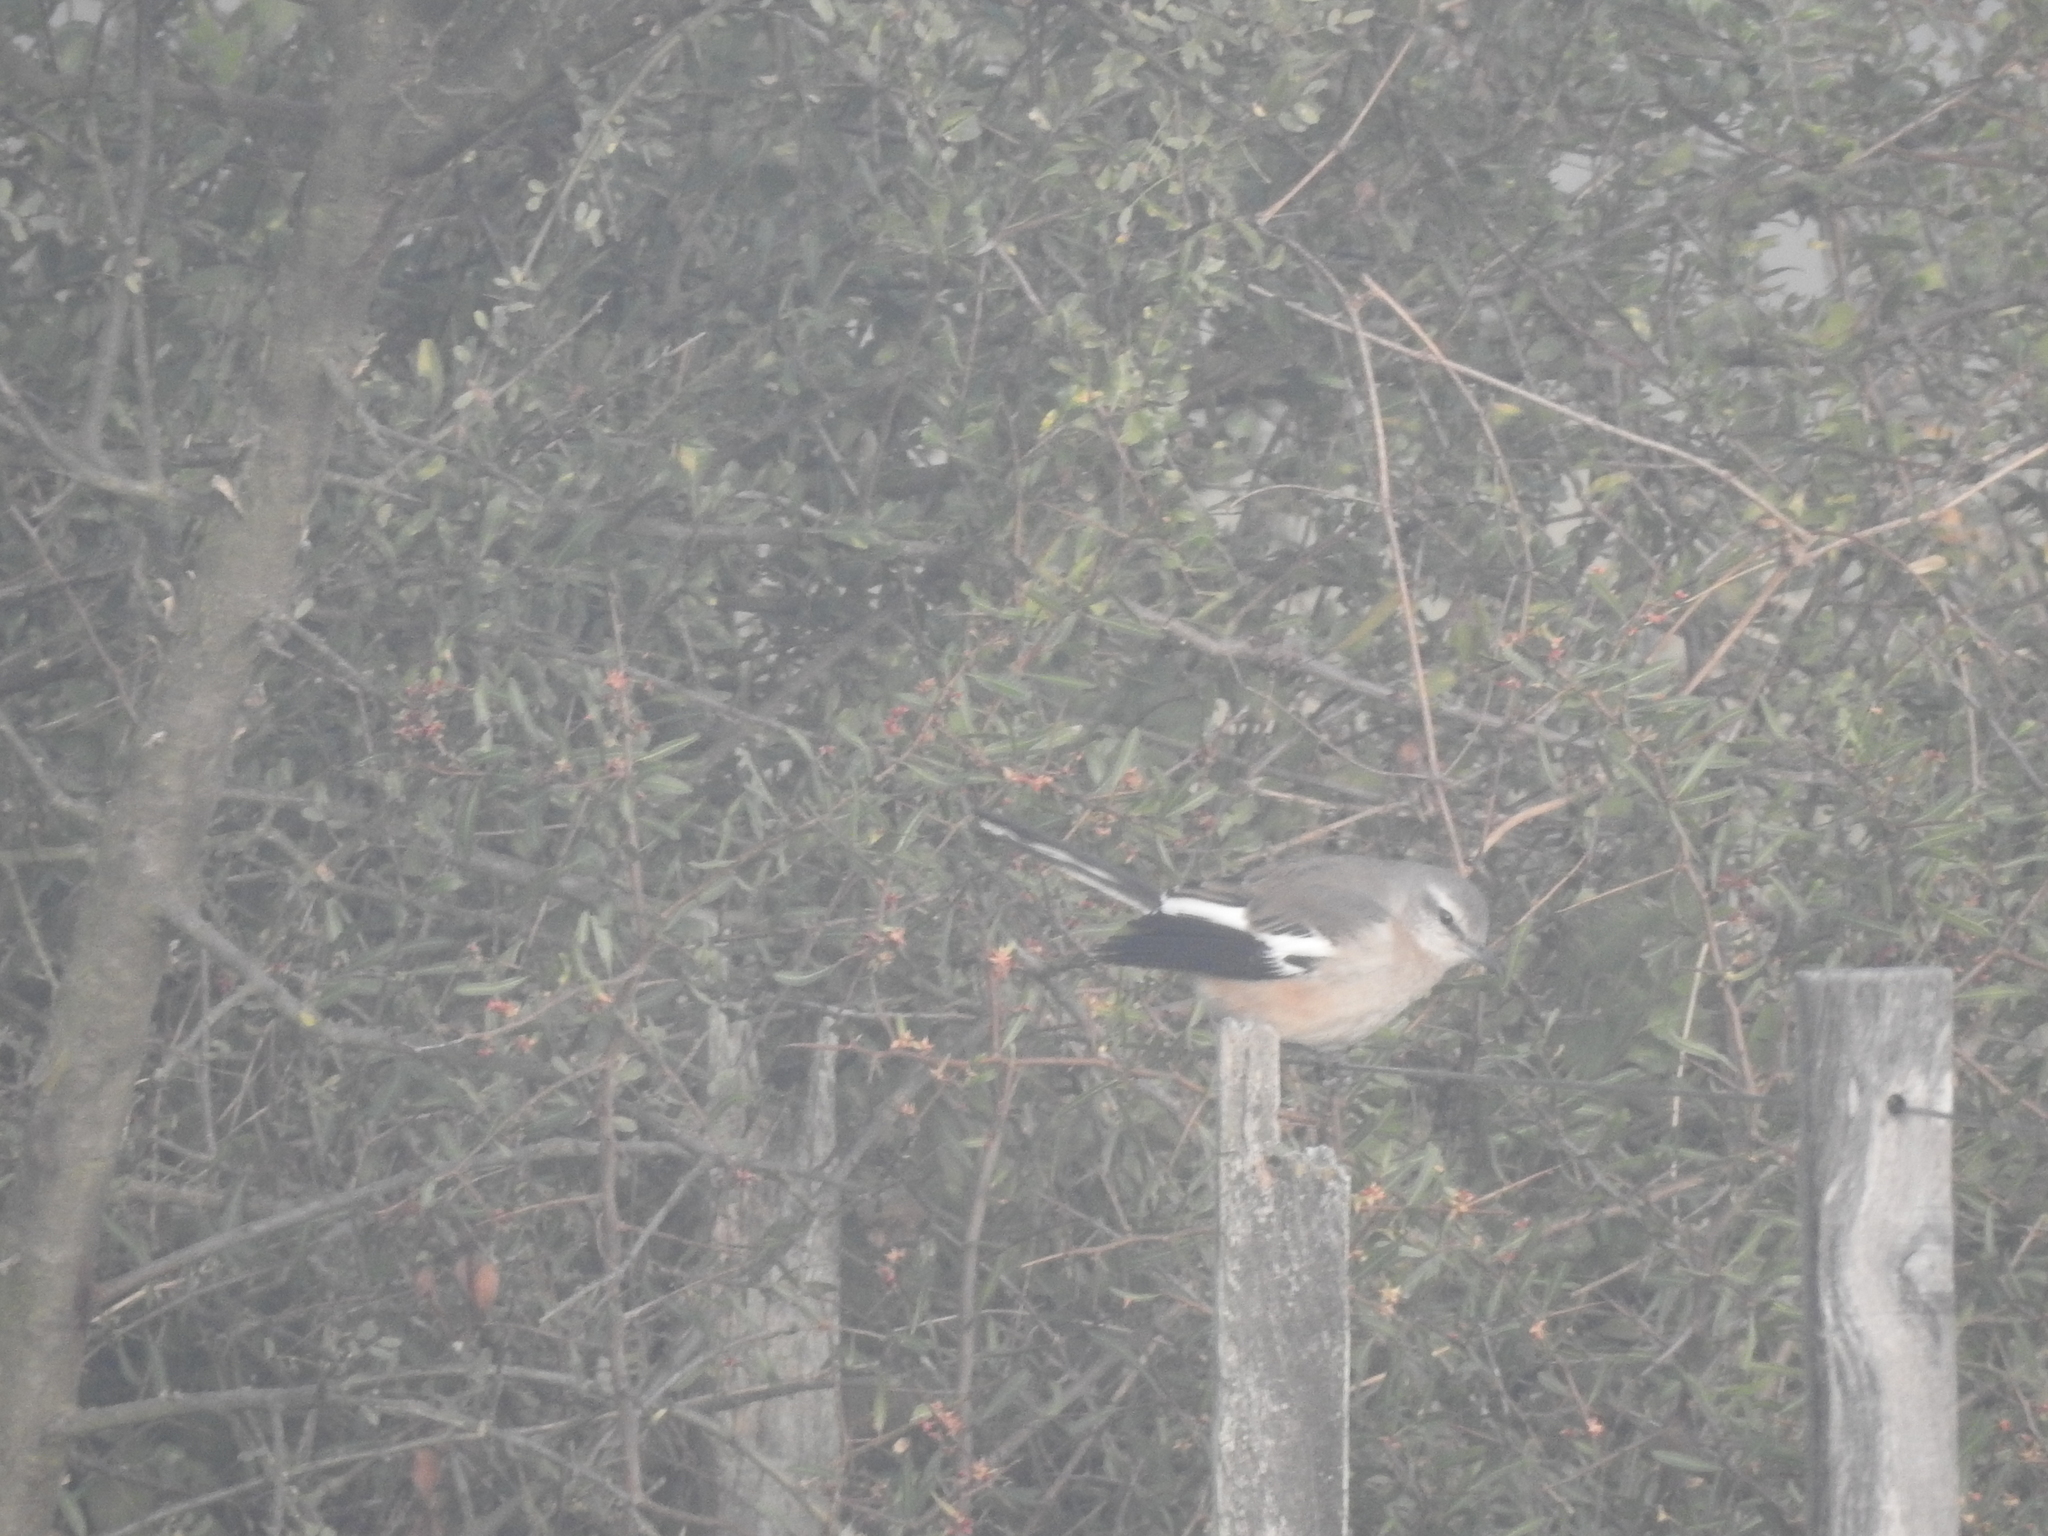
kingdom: Animalia
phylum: Chordata
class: Aves
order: Passeriformes
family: Mimidae
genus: Mimus
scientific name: Mimus triurus
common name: White-banded mockingbird
